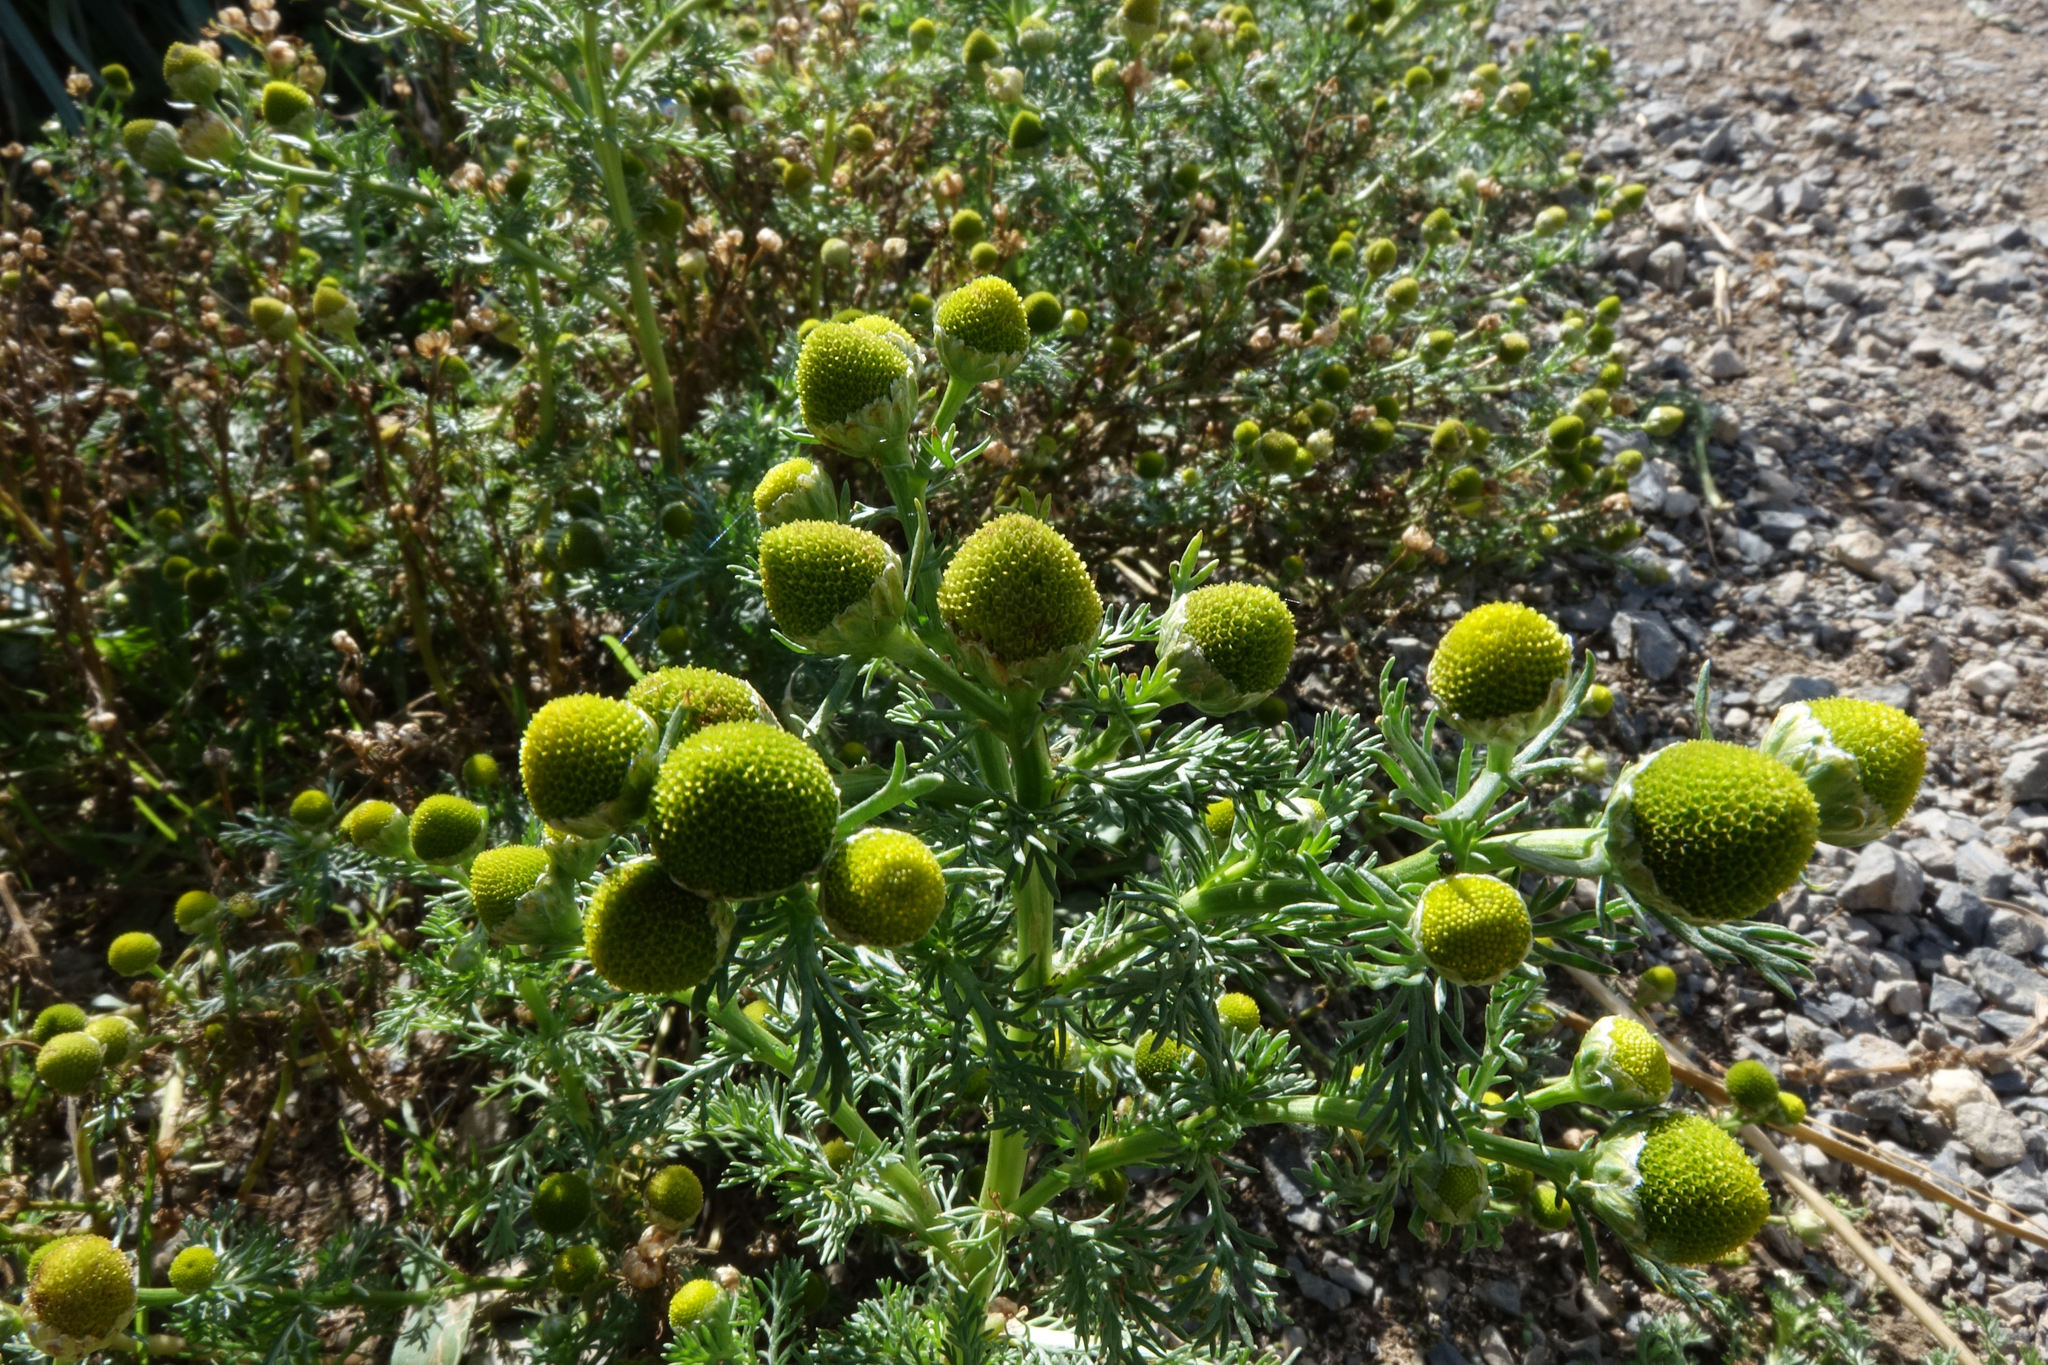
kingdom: Plantae
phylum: Tracheophyta
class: Magnoliopsida
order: Asterales
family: Asteraceae
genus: Matricaria
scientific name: Matricaria discoidea
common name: Disc mayweed
